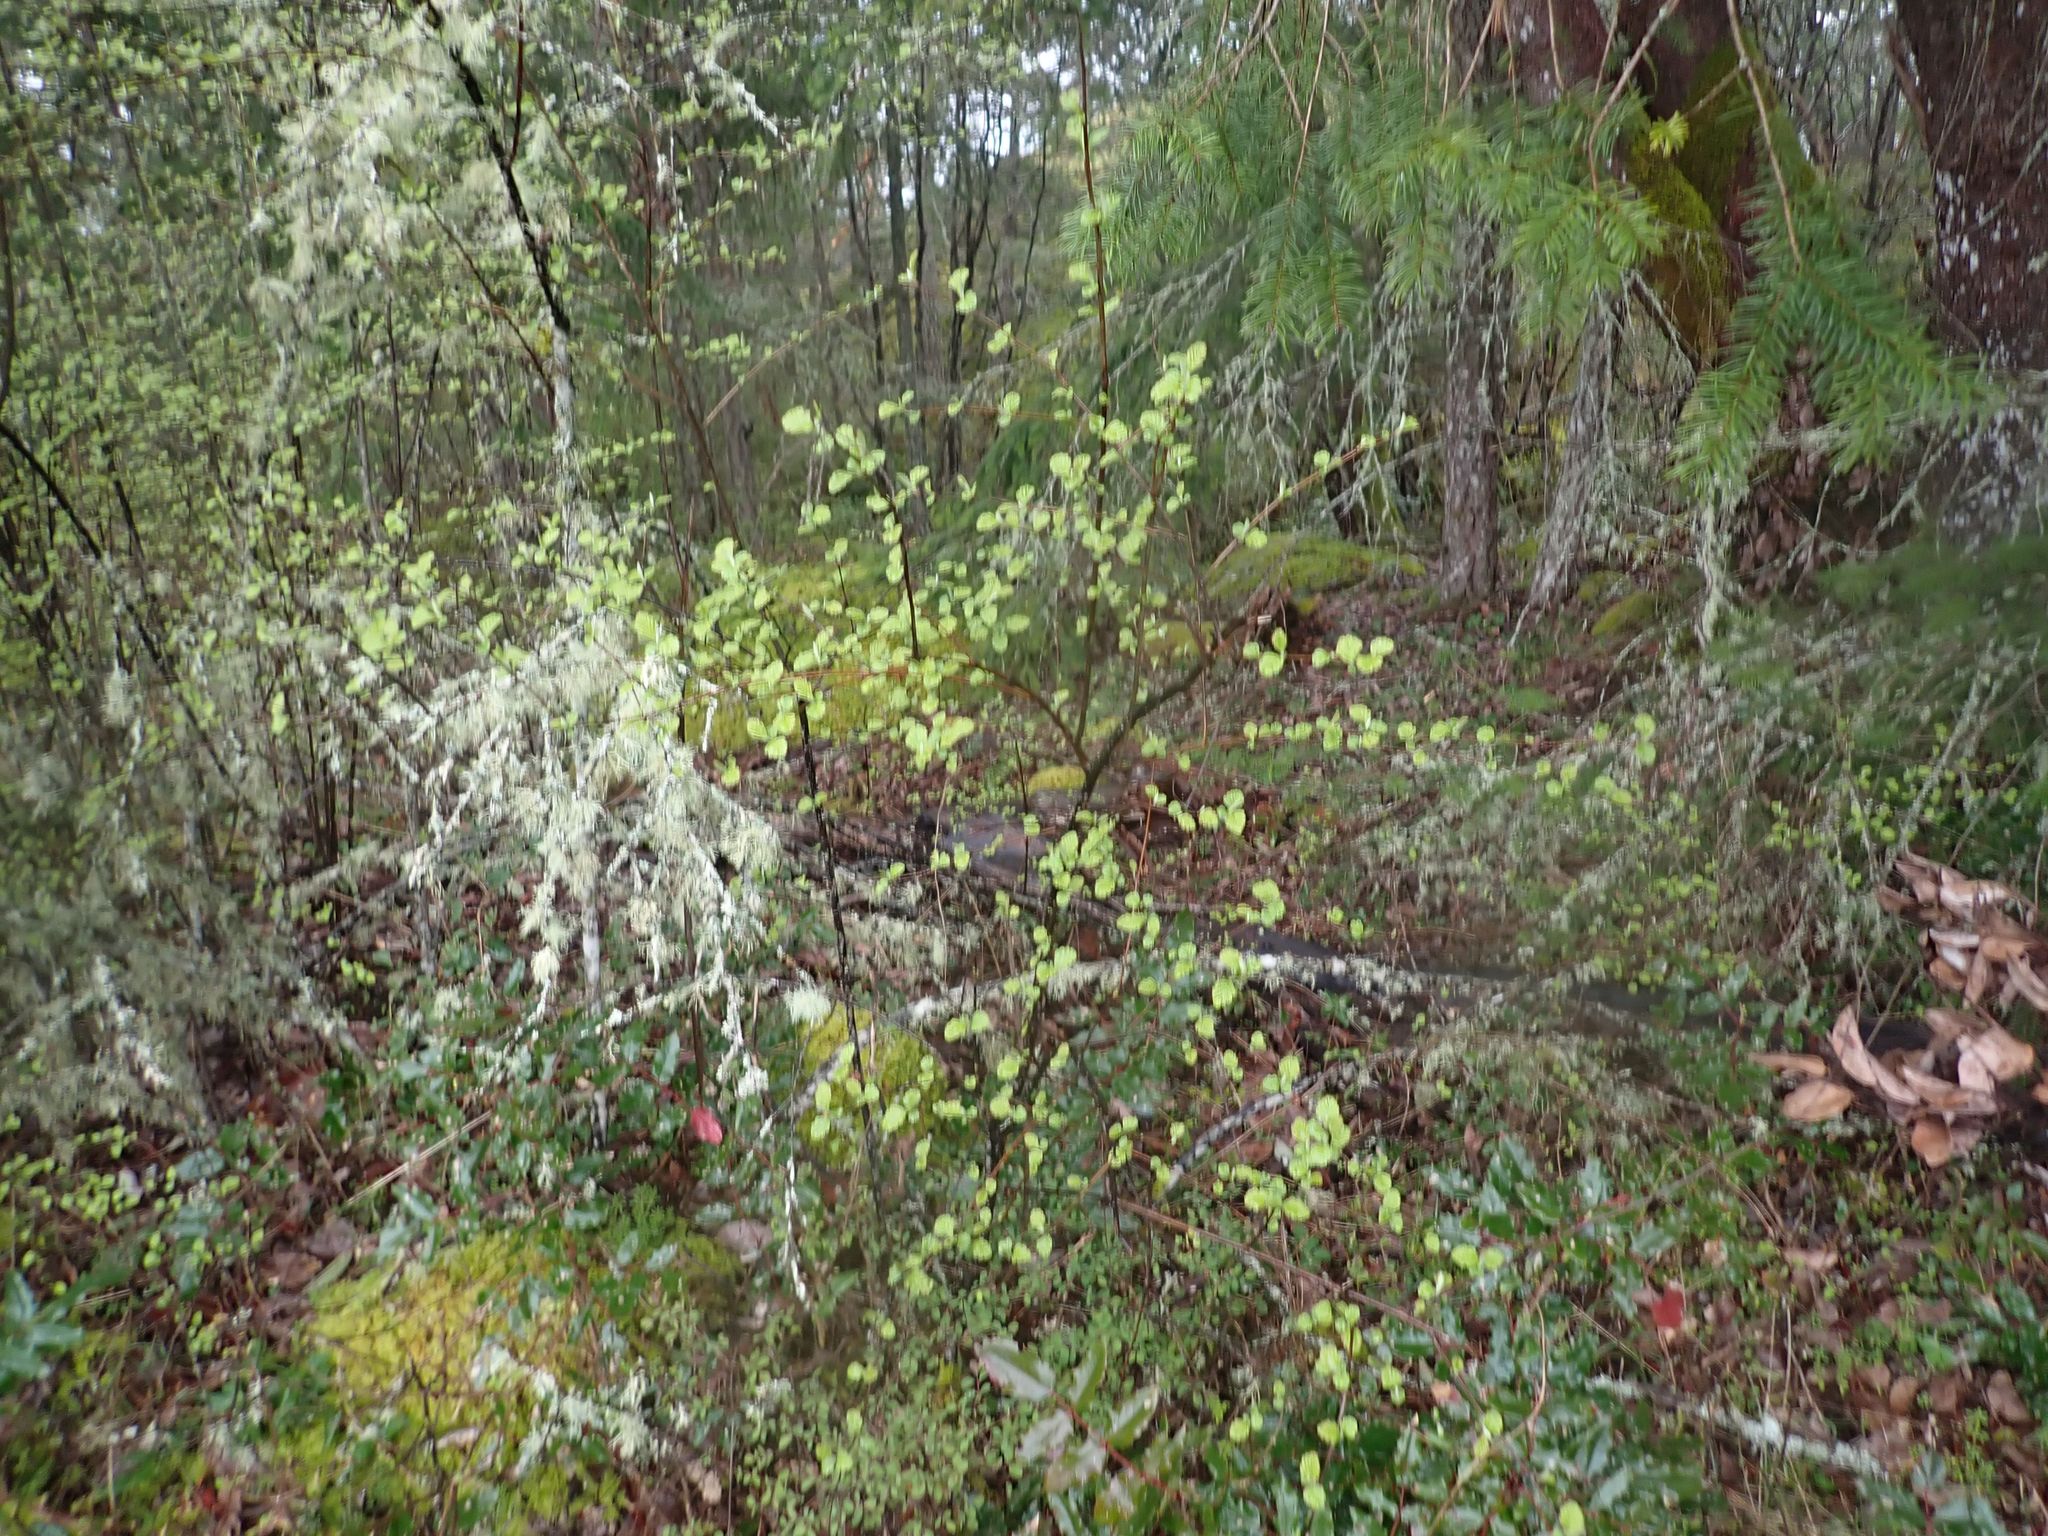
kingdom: Plantae
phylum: Tracheophyta
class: Magnoliopsida
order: Rosales
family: Rosaceae
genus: Holodiscus
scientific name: Holodiscus discolor
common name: Oceanspray
